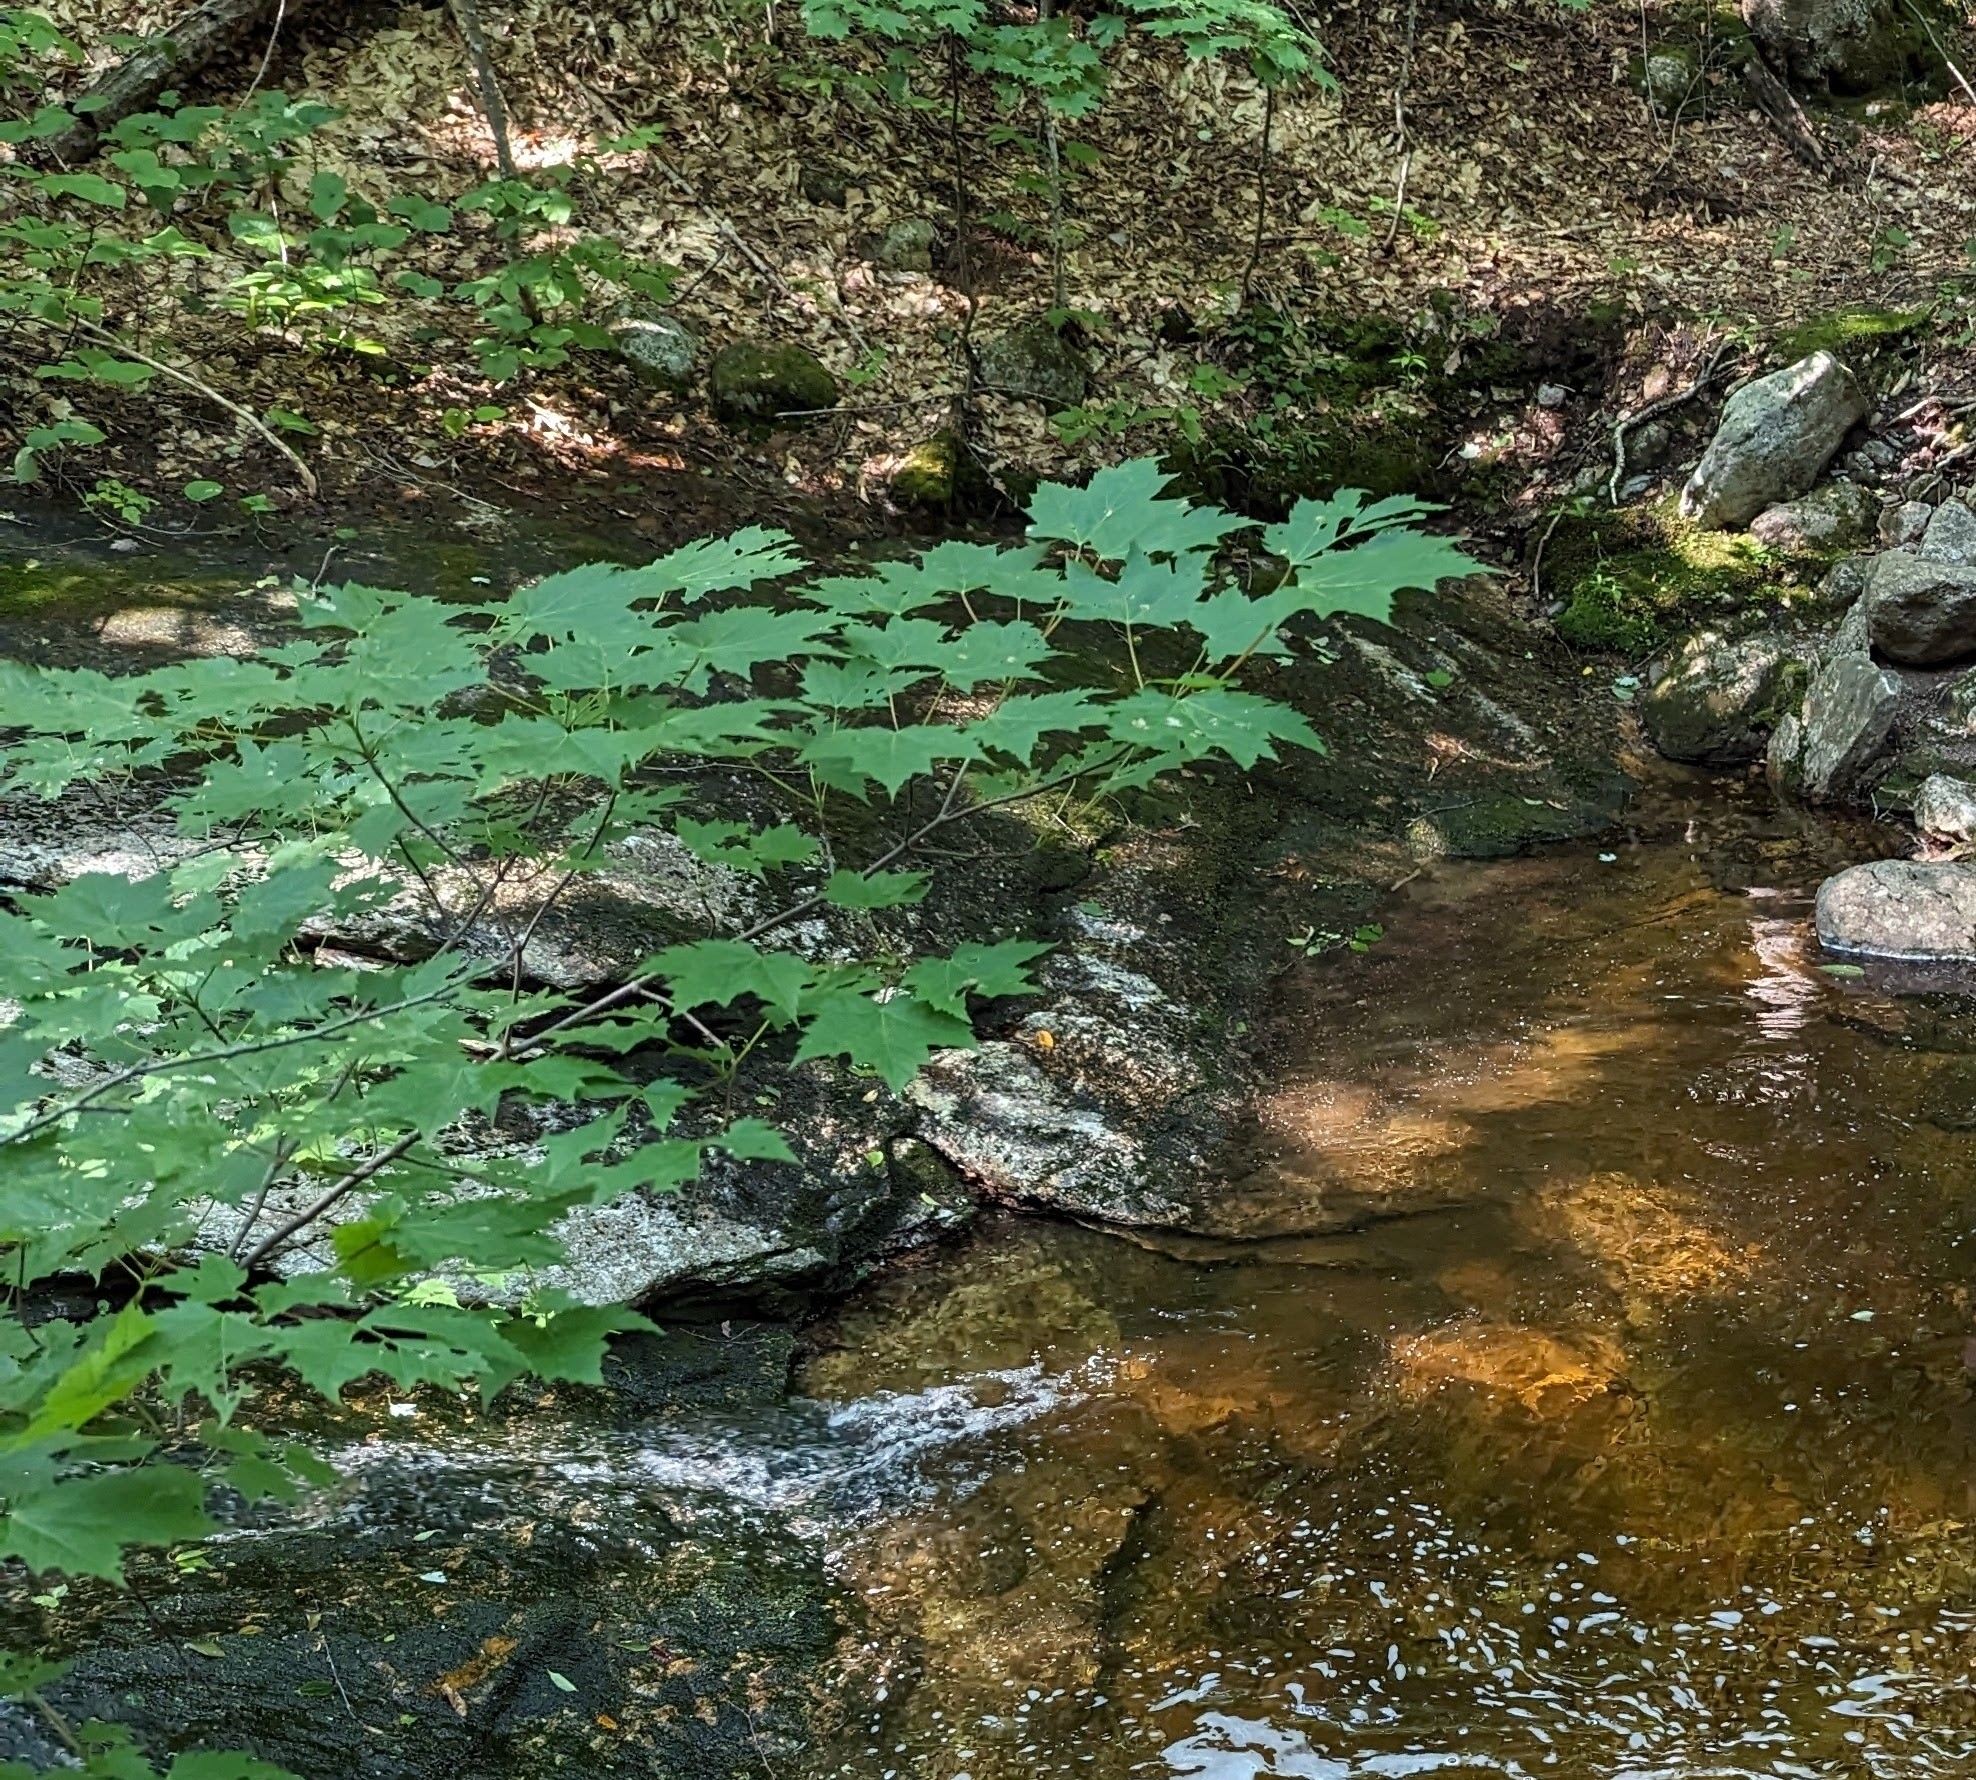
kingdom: Plantae
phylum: Tracheophyta
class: Magnoliopsida
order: Sapindales
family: Sapindaceae
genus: Acer
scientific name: Acer saccharum
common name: Sugar maple
